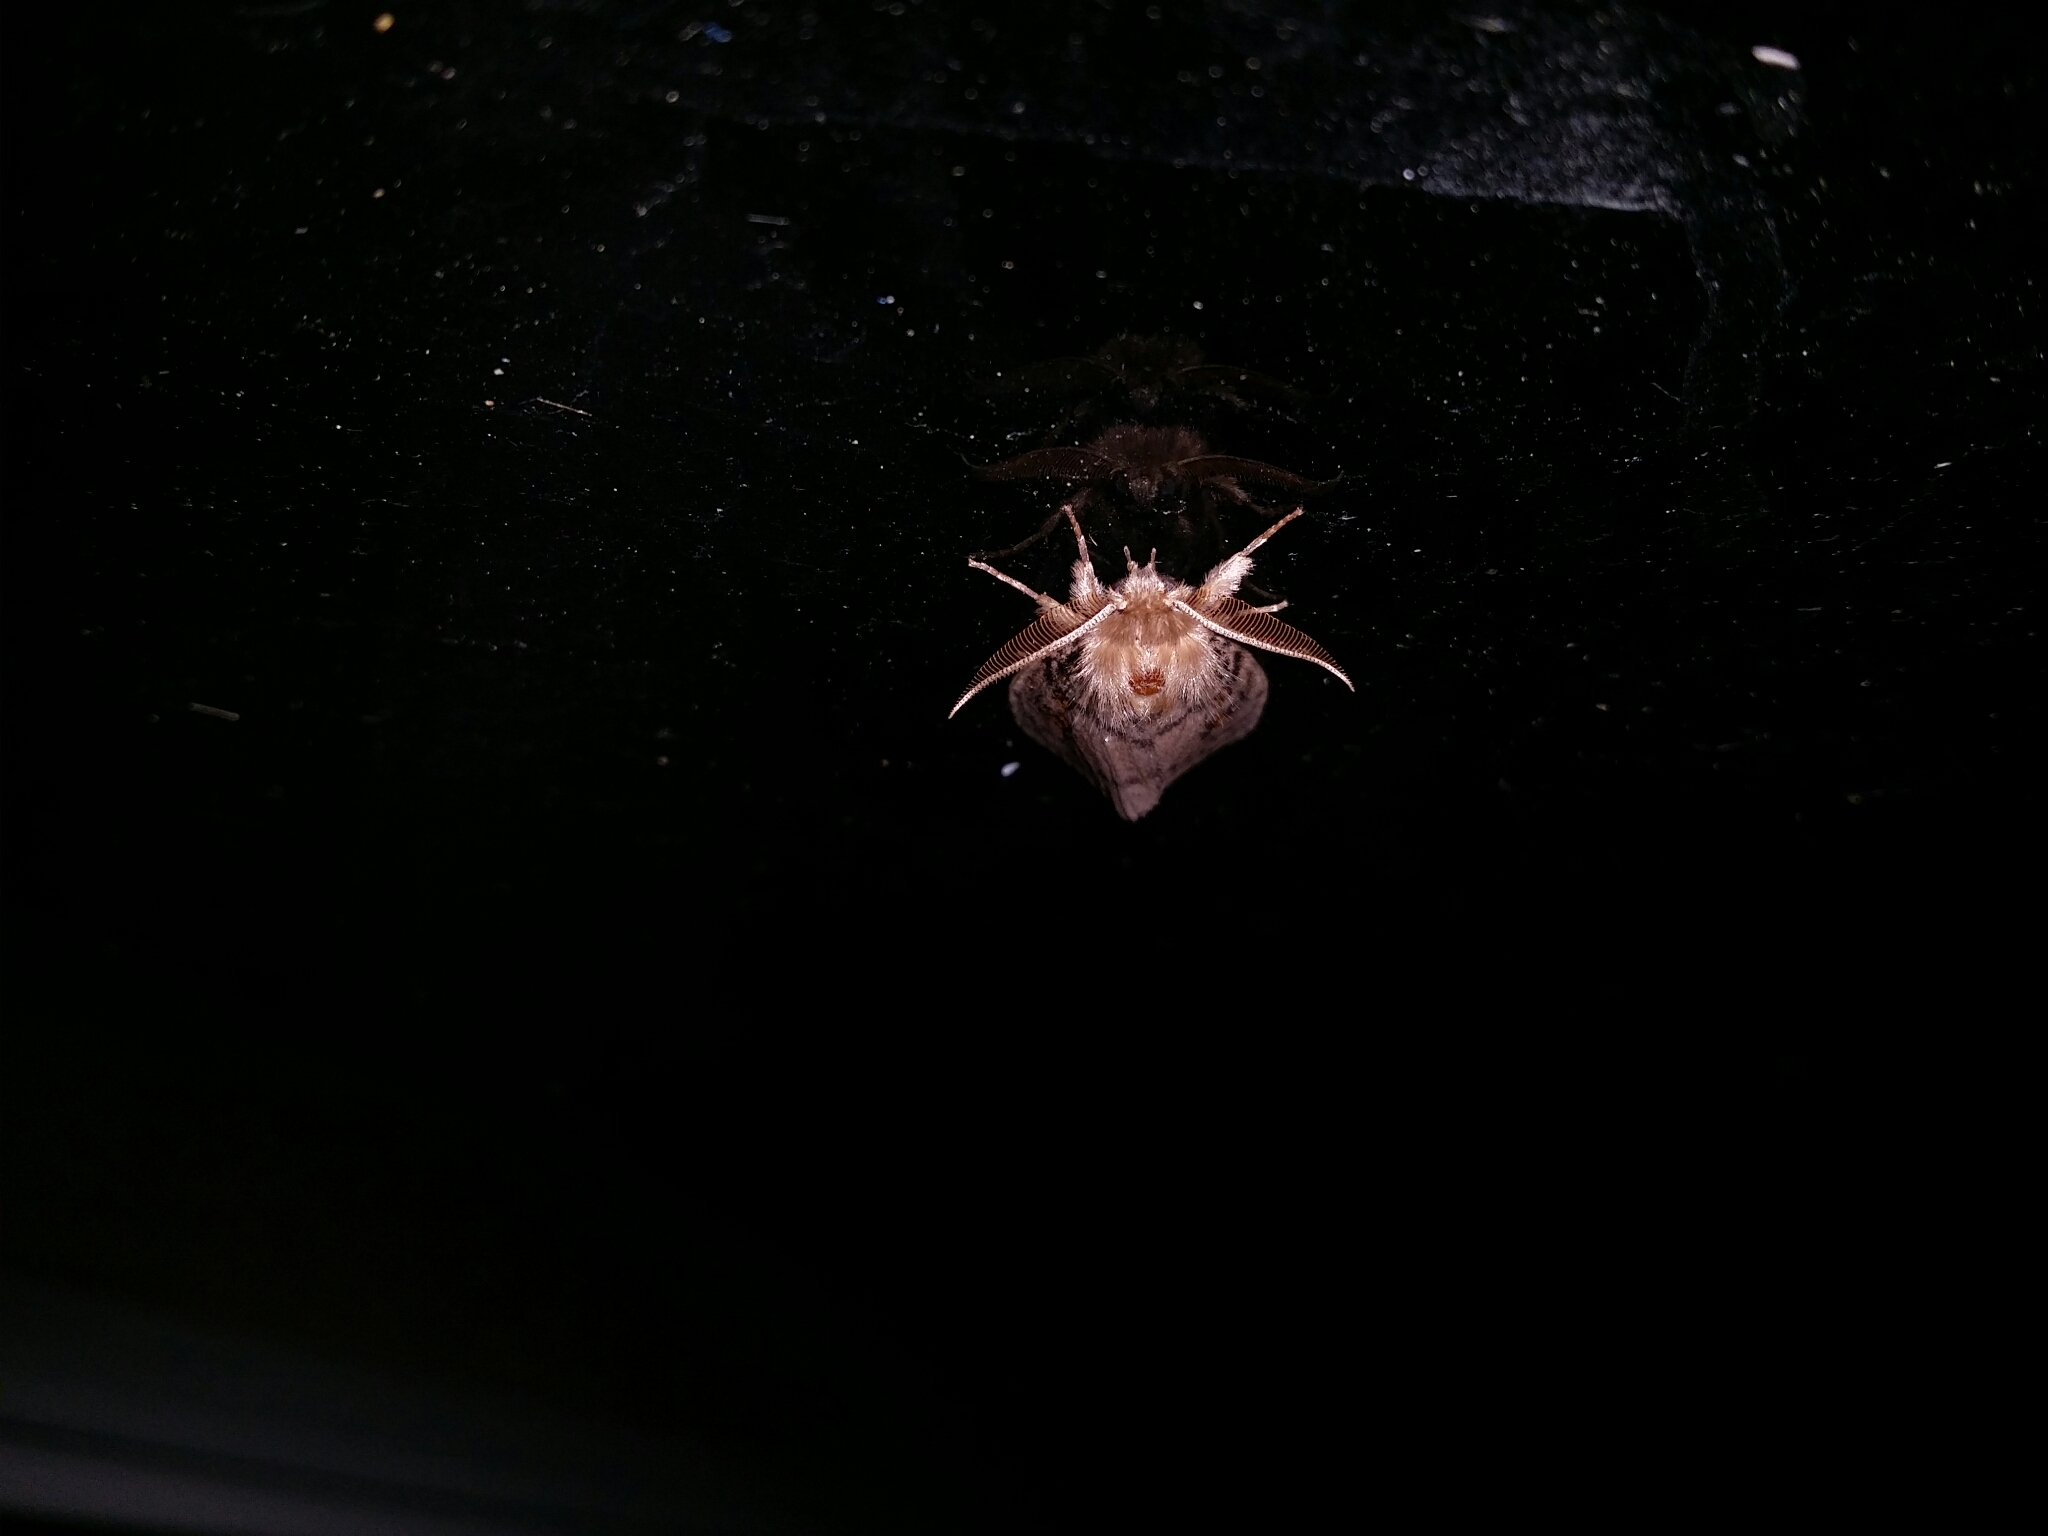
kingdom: Animalia
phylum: Arthropoda
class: Insecta
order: Lepidoptera
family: Erebidae
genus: Leptocneria
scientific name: Leptocneria reducta
